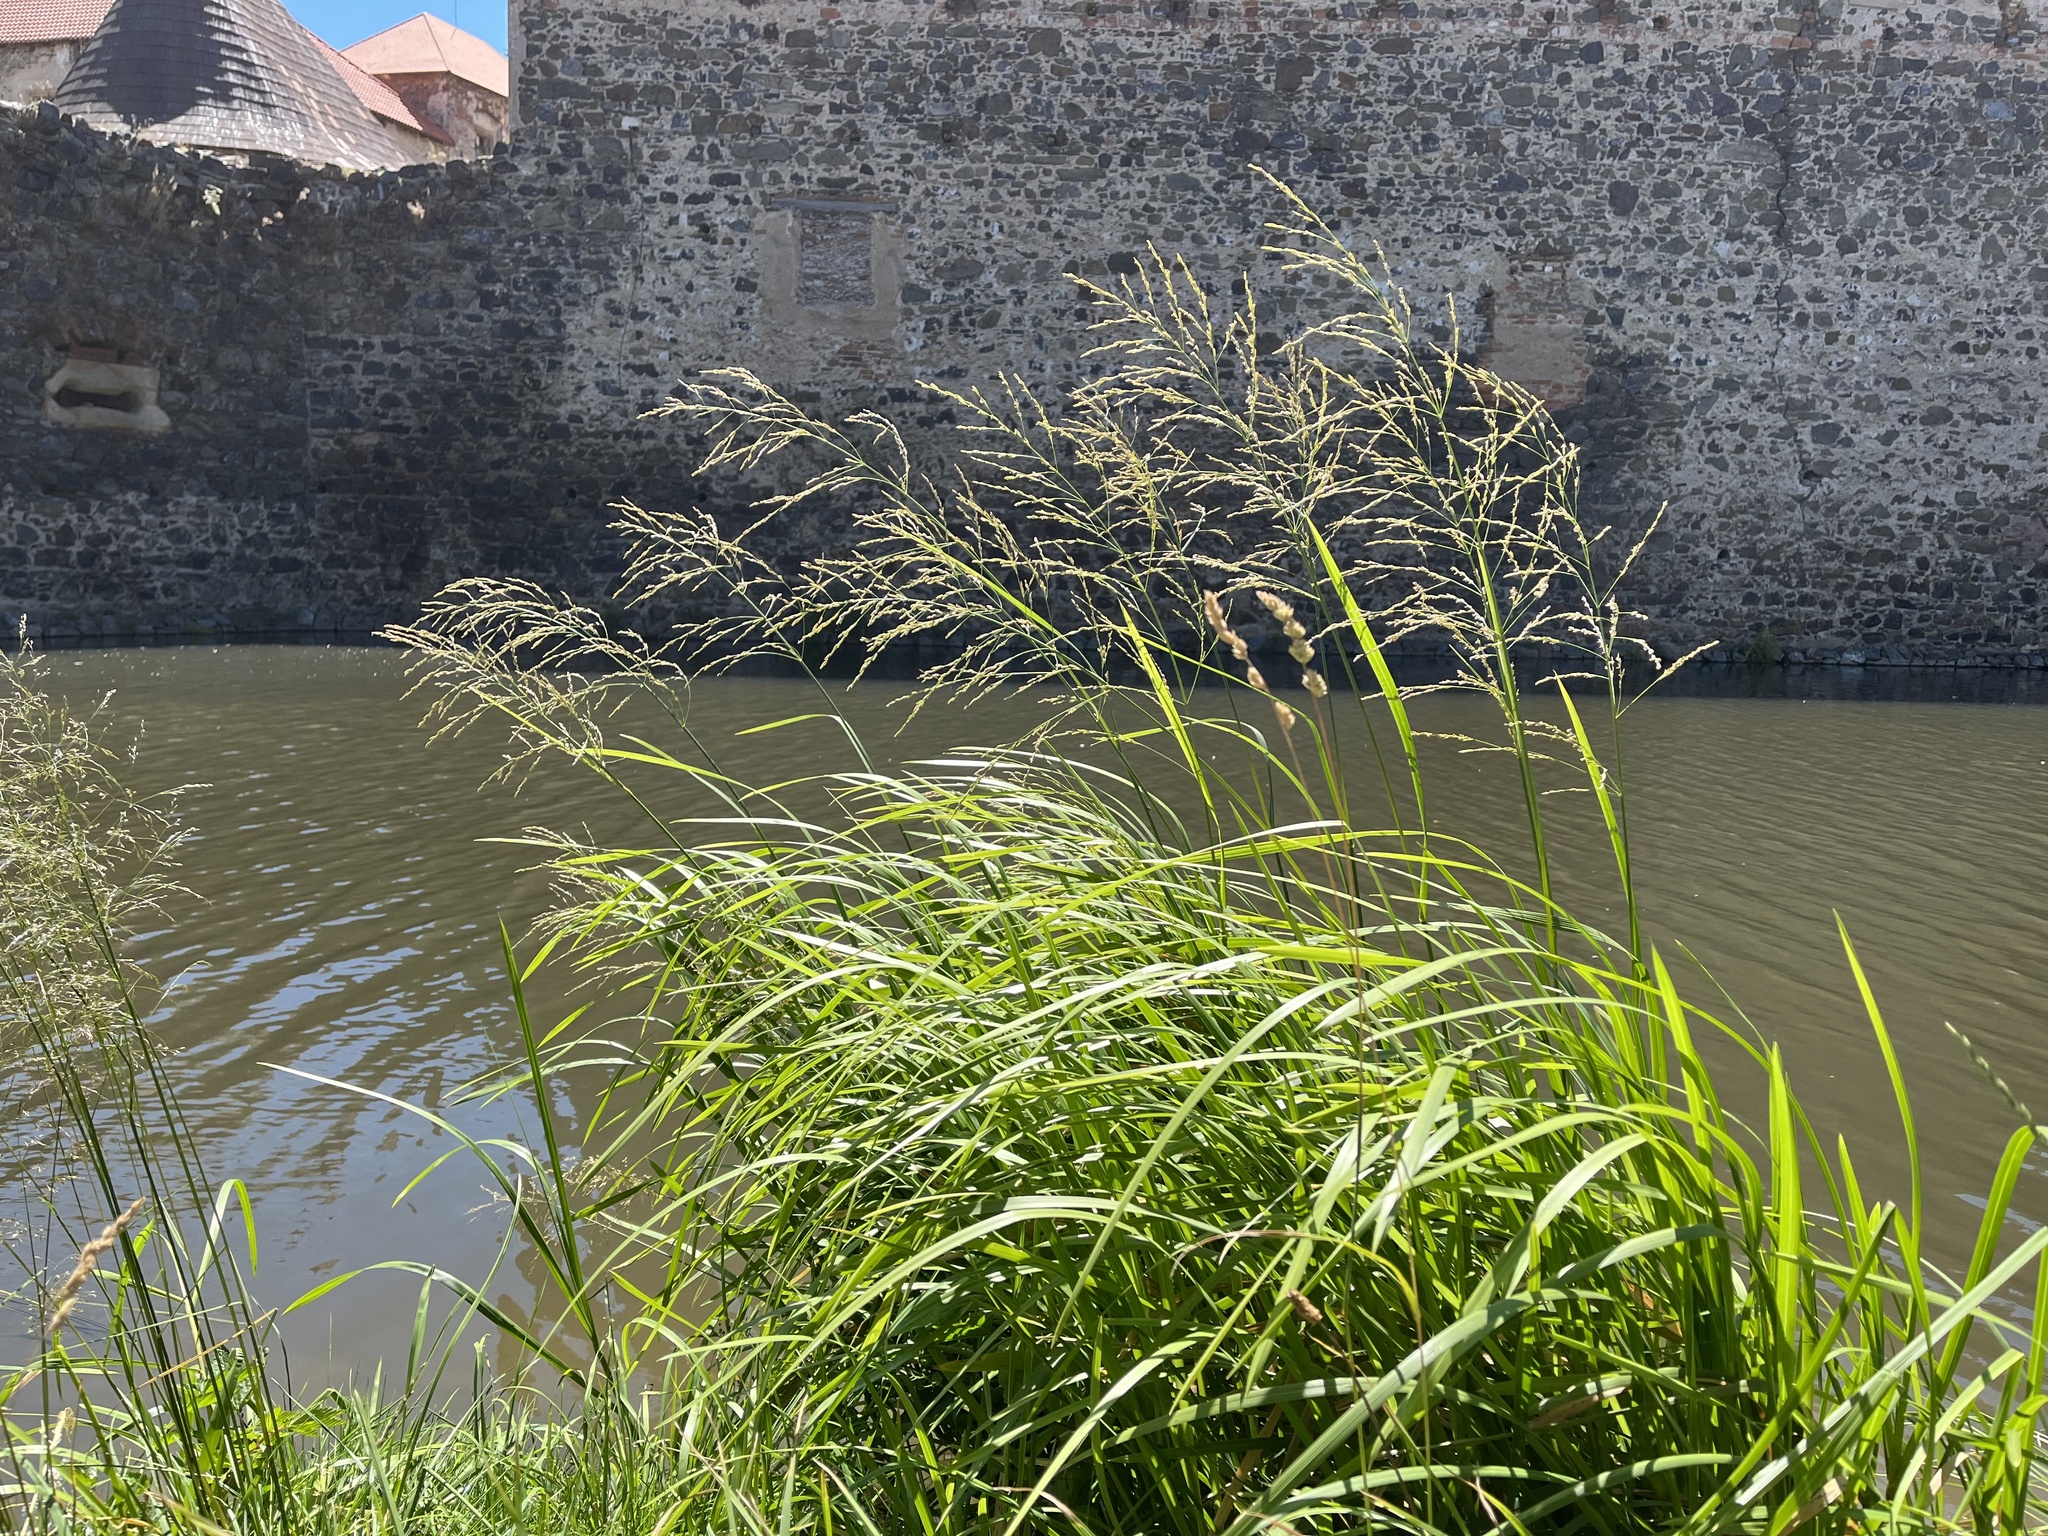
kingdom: Plantae
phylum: Tracheophyta
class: Liliopsida
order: Poales
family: Poaceae
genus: Glyceria
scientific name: Glyceria maxima
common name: Reed mannagrass
